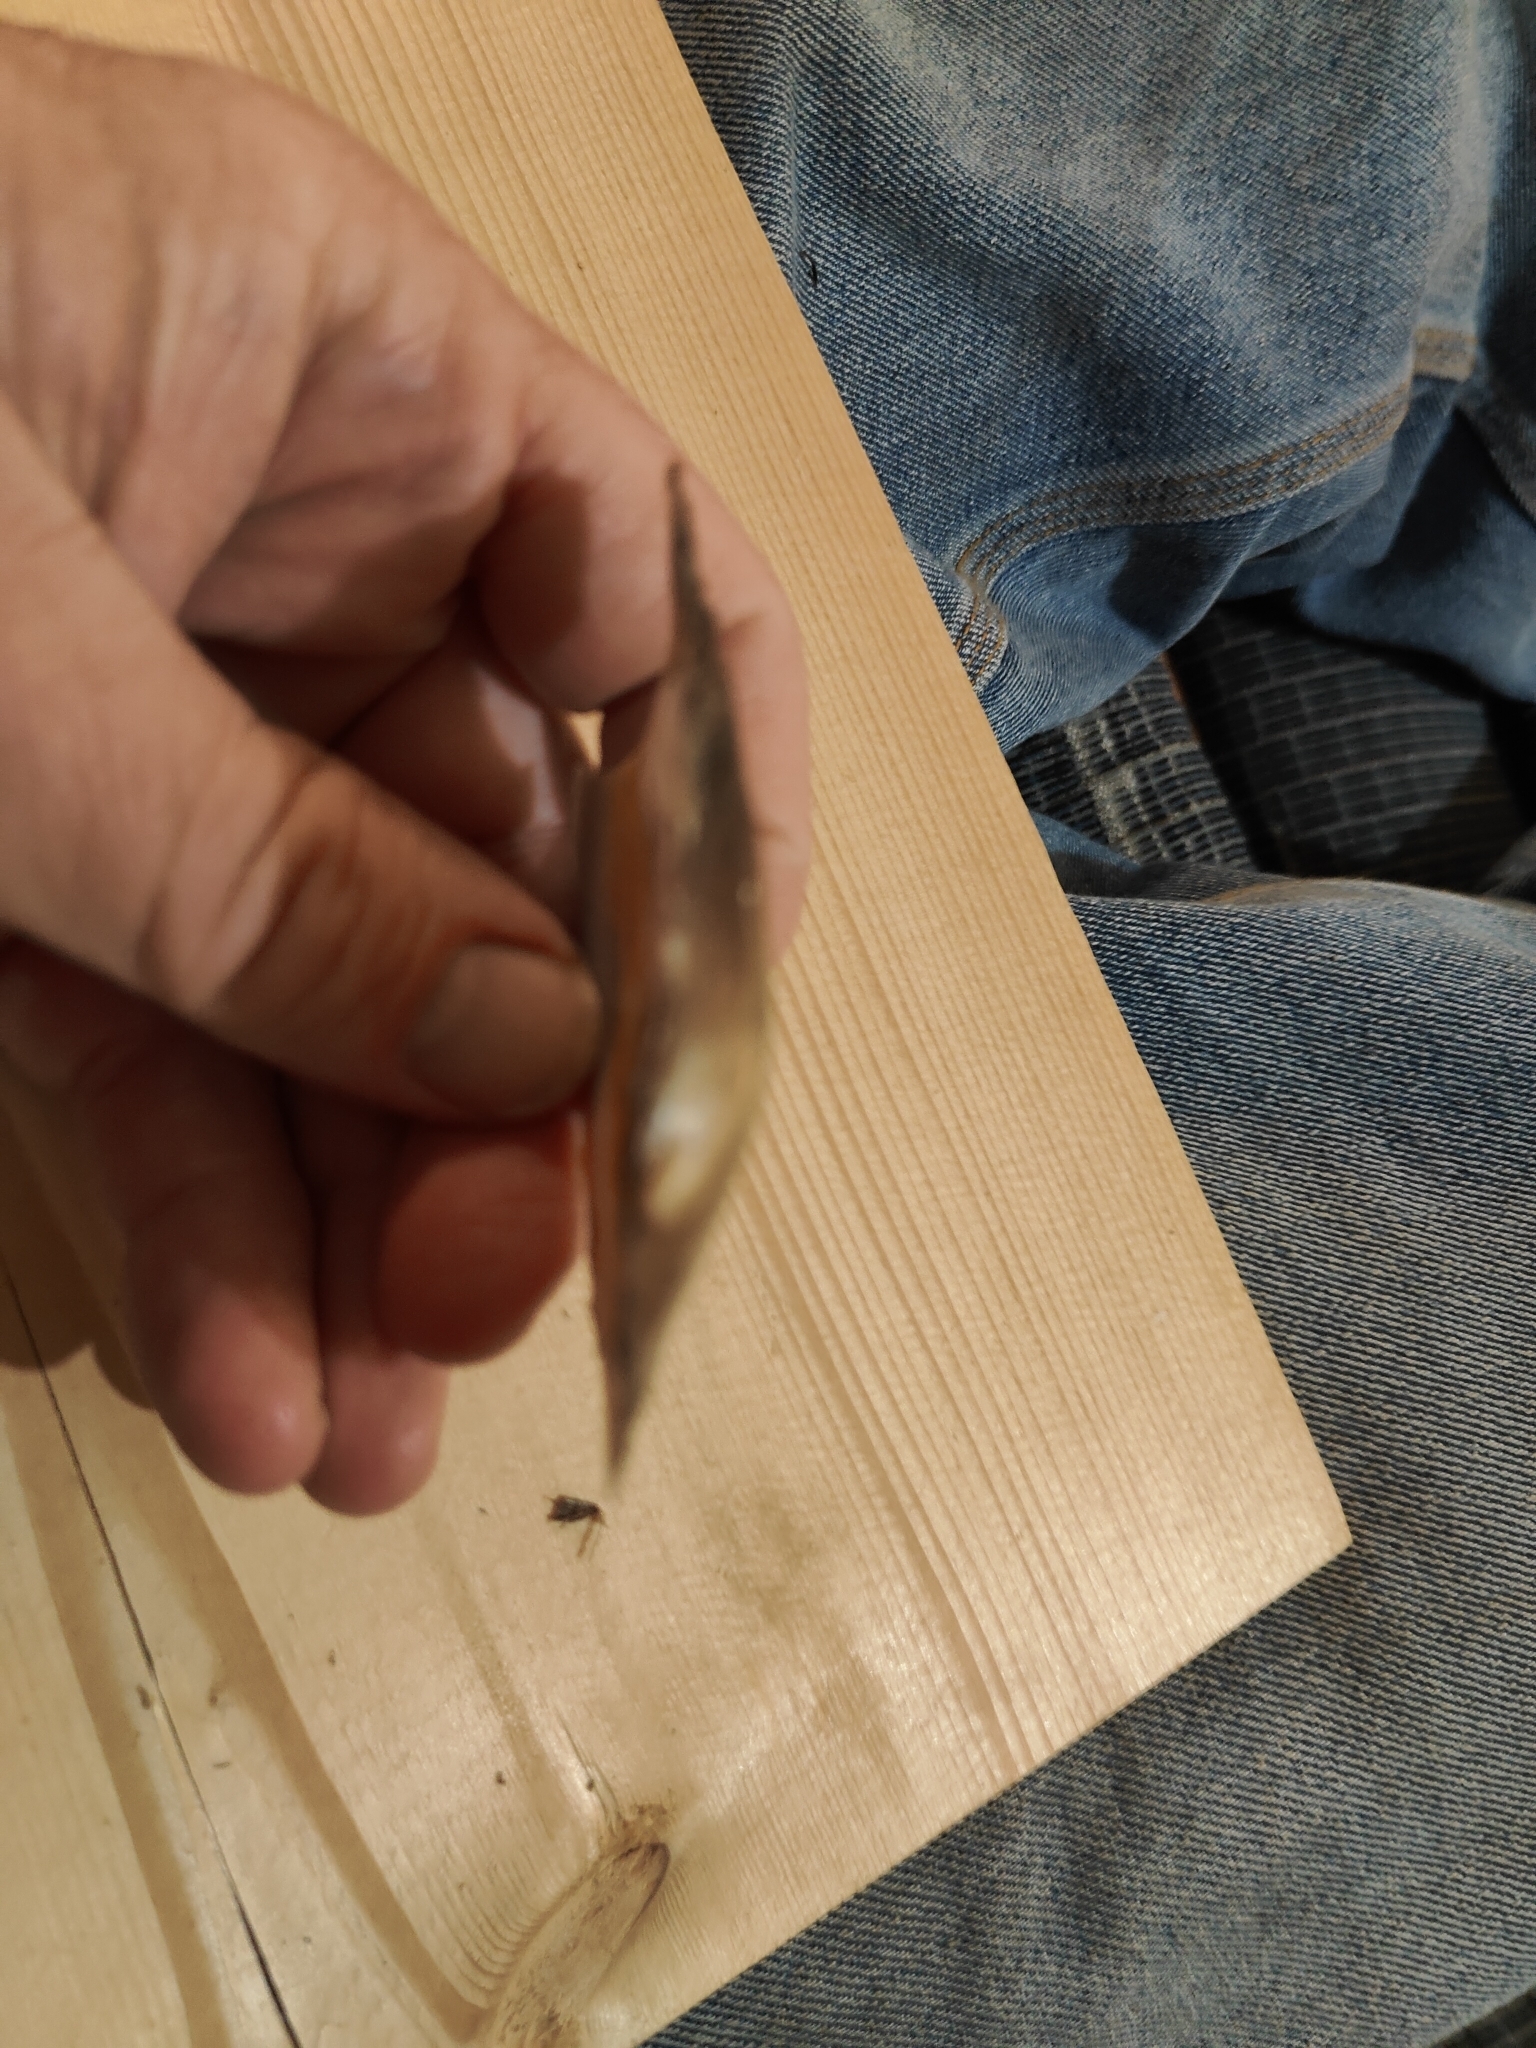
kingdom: Animalia
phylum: Mollusca
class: Bivalvia
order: Unionida
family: Unionidae
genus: Potamilus
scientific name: Potamilus ohiensis
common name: Pink papershell
